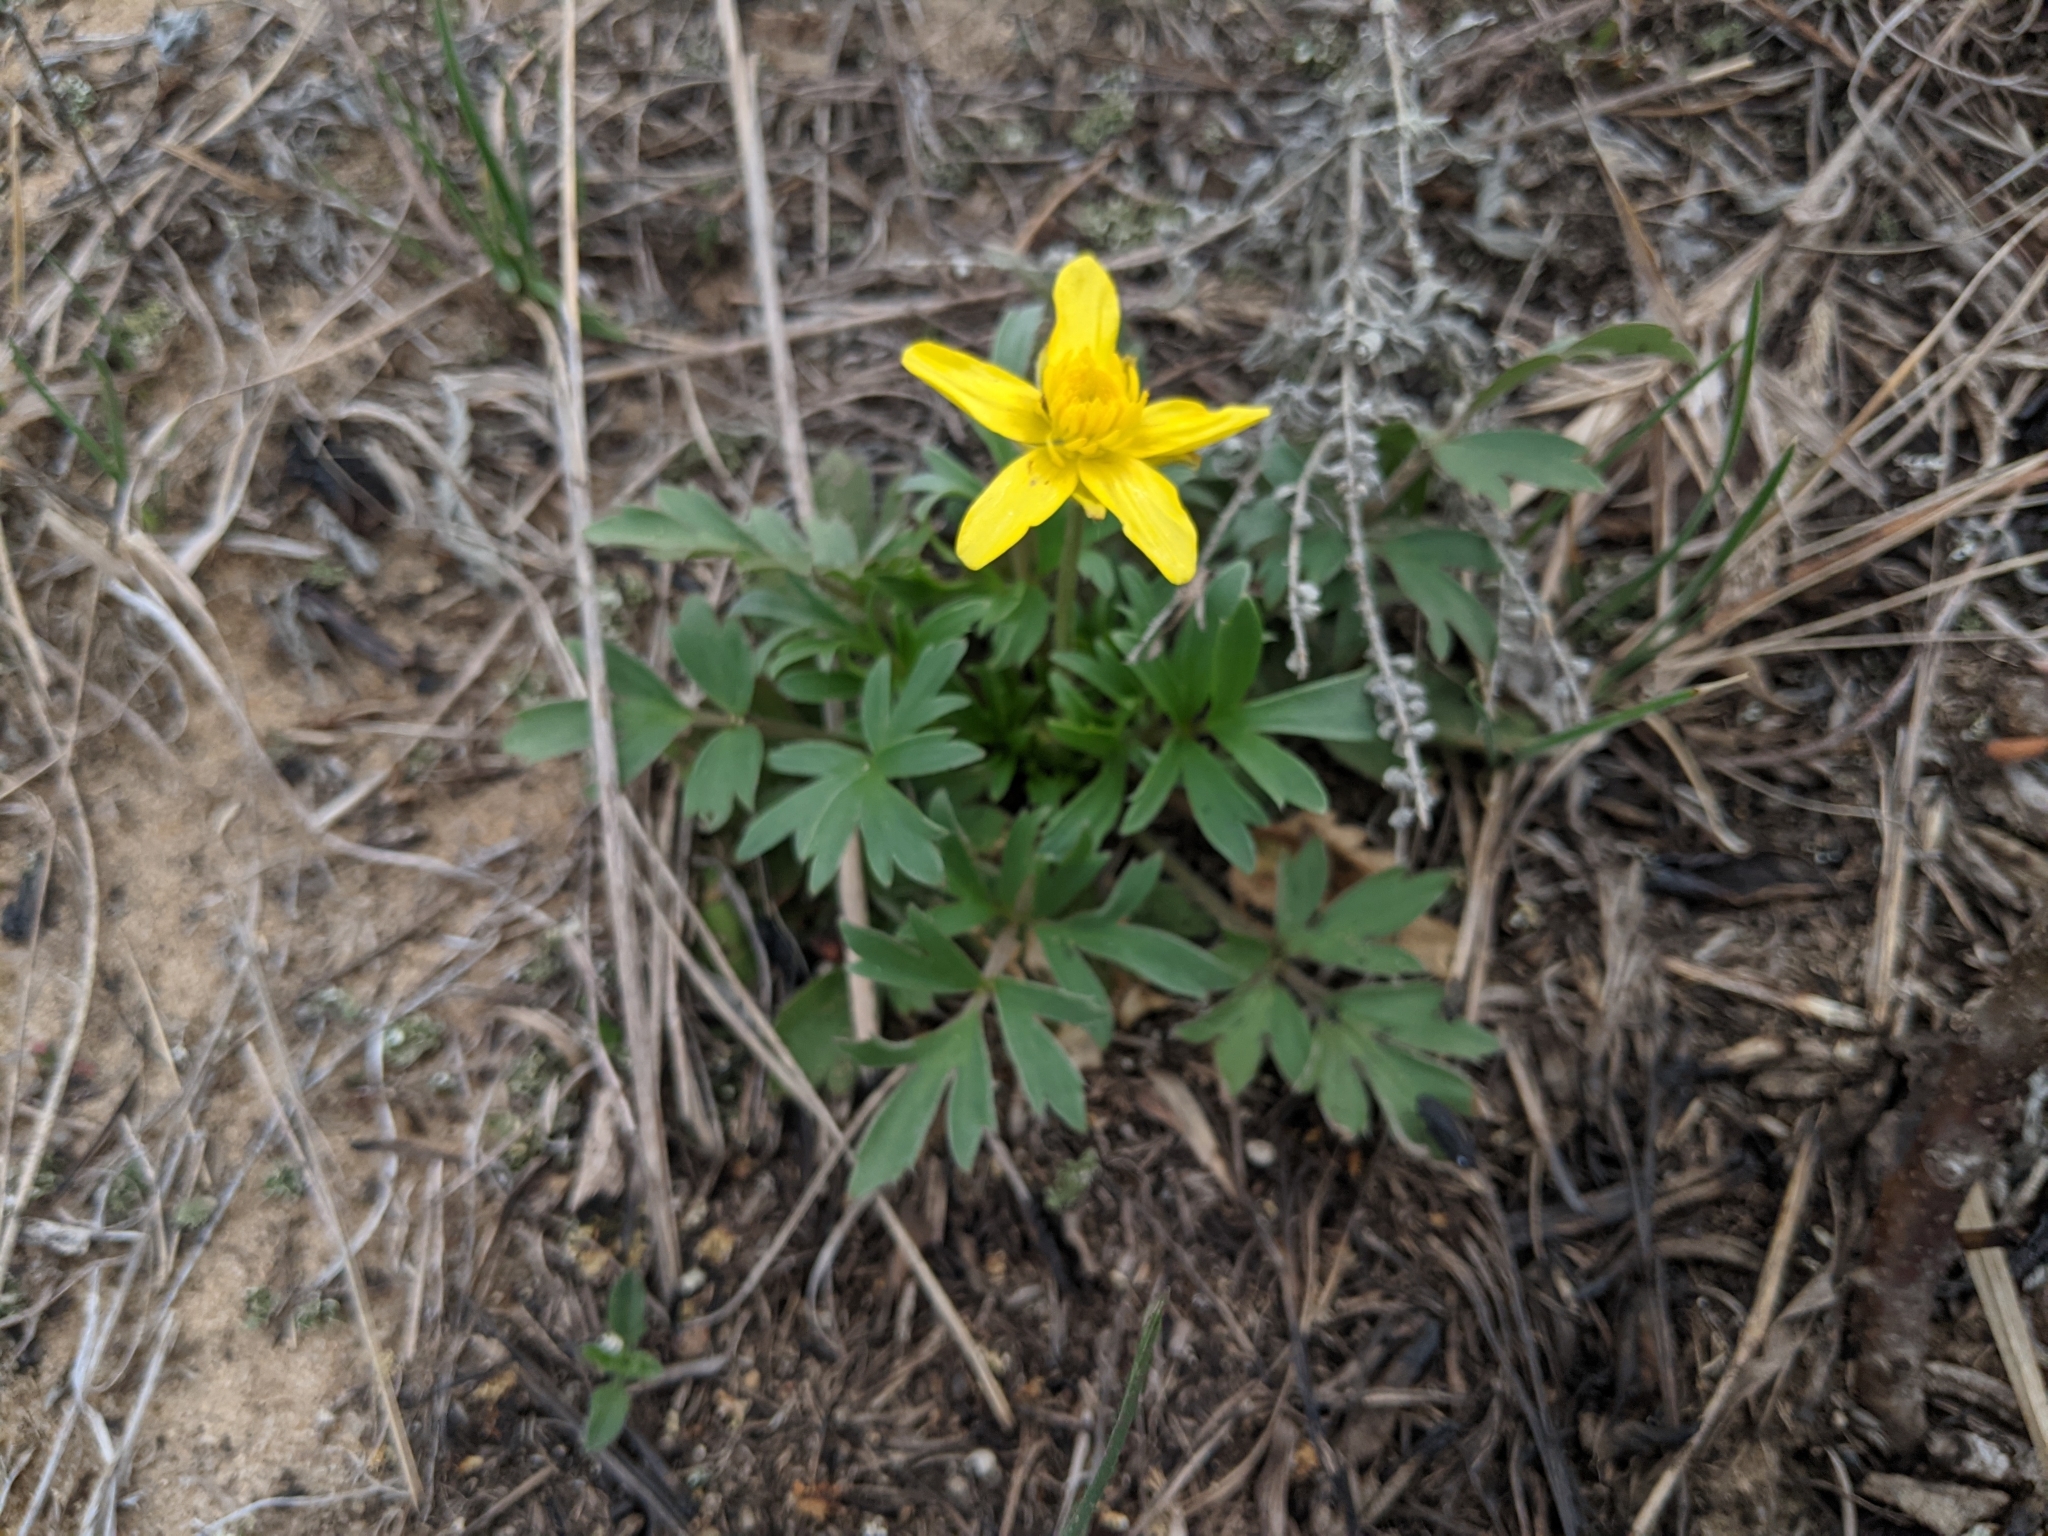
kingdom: Plantae
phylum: Tracheophyta
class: Magnoliopsida
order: Ranunculales
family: Ranunculaceae
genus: Ranunculus
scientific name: Ranunculus fascicularis
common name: Early buttercup
